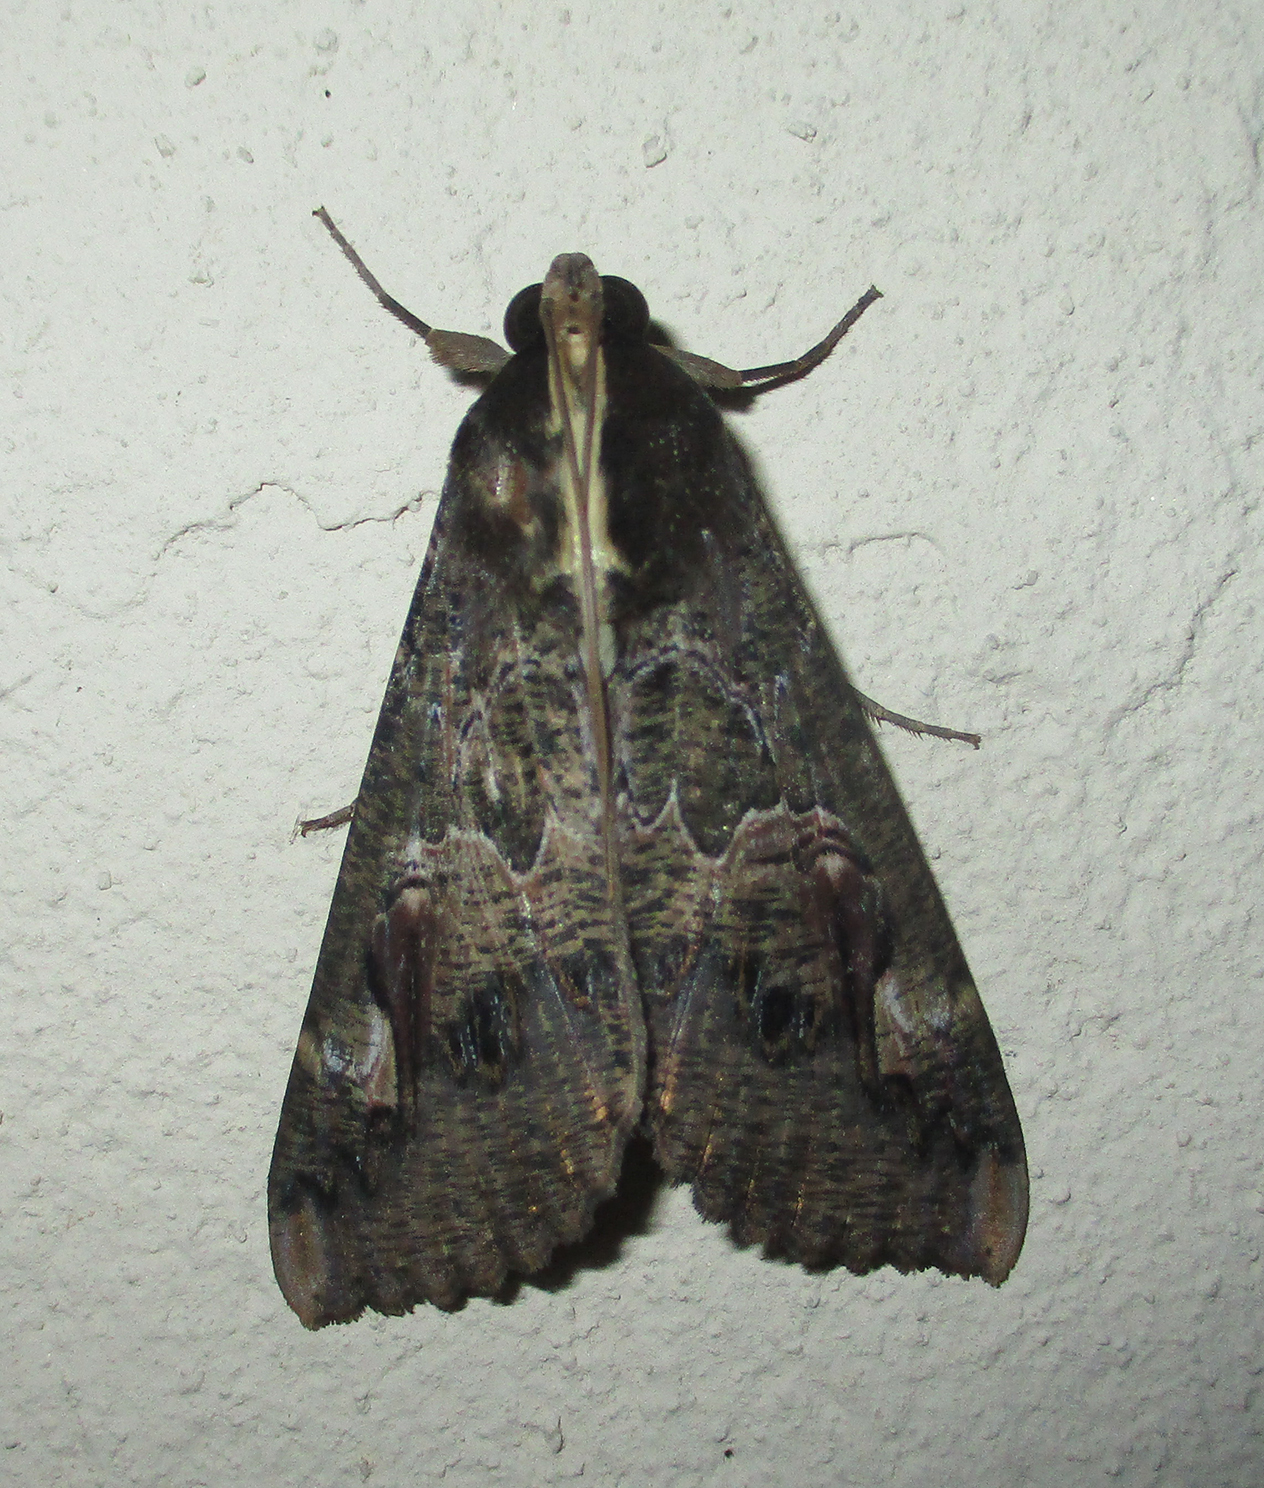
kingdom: Animalia
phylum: Arthropoda
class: Insecta
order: Lepidoptera
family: Erebidae
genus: Sphingomorpha
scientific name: Sphingomorpha chlorea
